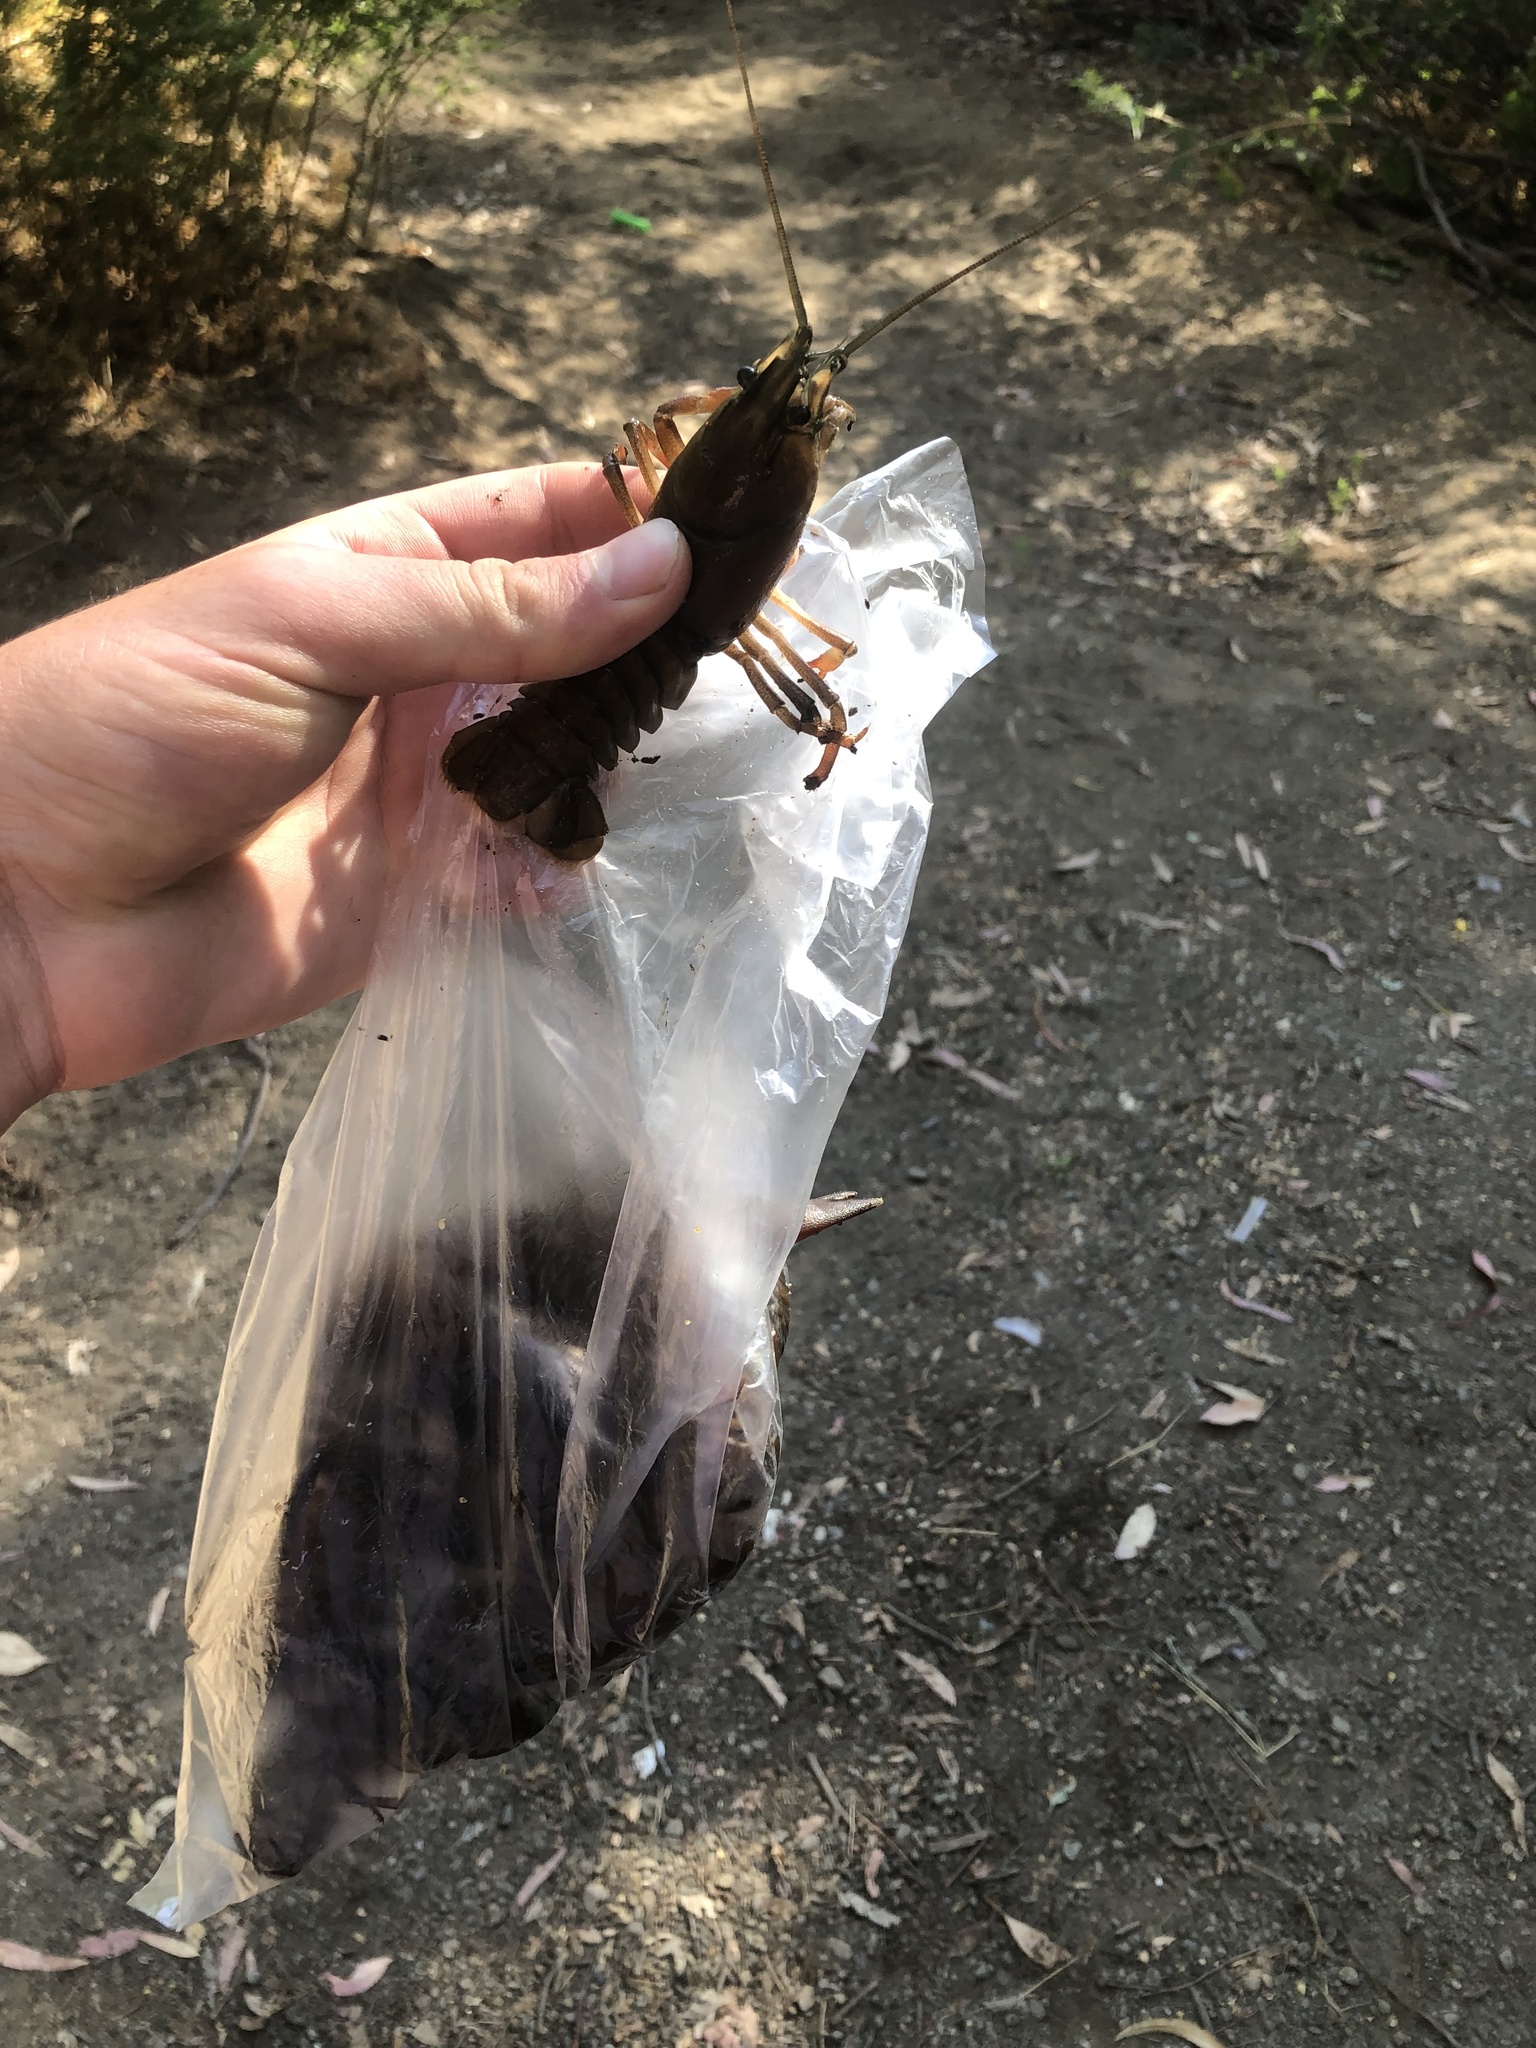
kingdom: Animalia
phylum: Arthropoda
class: Malacostraca
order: Decapoda
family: Astacidae
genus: Pacifastacus
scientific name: Pacifastacus leniusculus
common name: Signal crayfish
